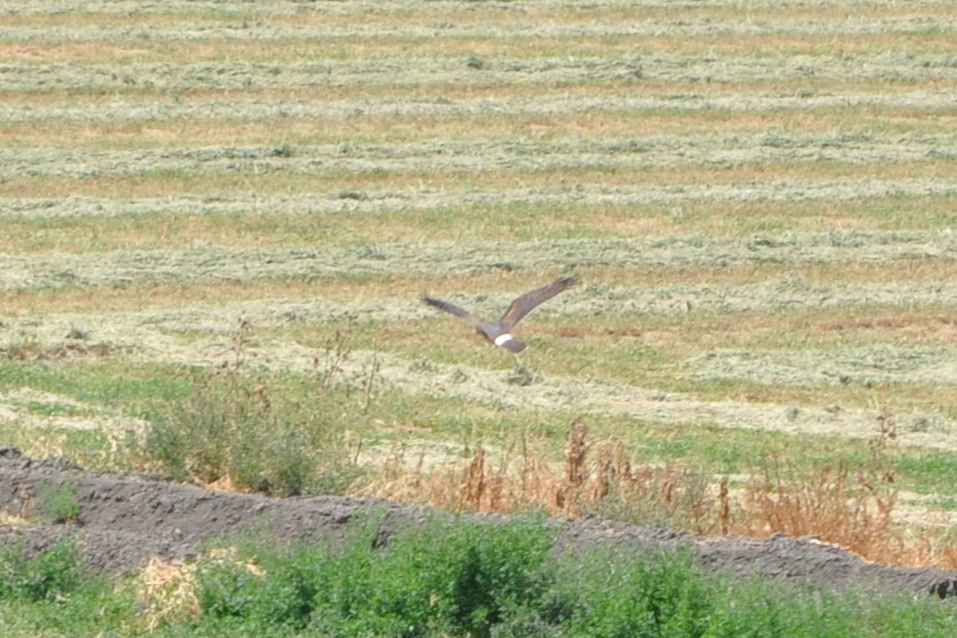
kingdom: Animalia
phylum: Chordata
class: Aves
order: Accipitriformes
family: Accipitridae
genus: Circus
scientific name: Circus cyaneus
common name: Hen harrier
